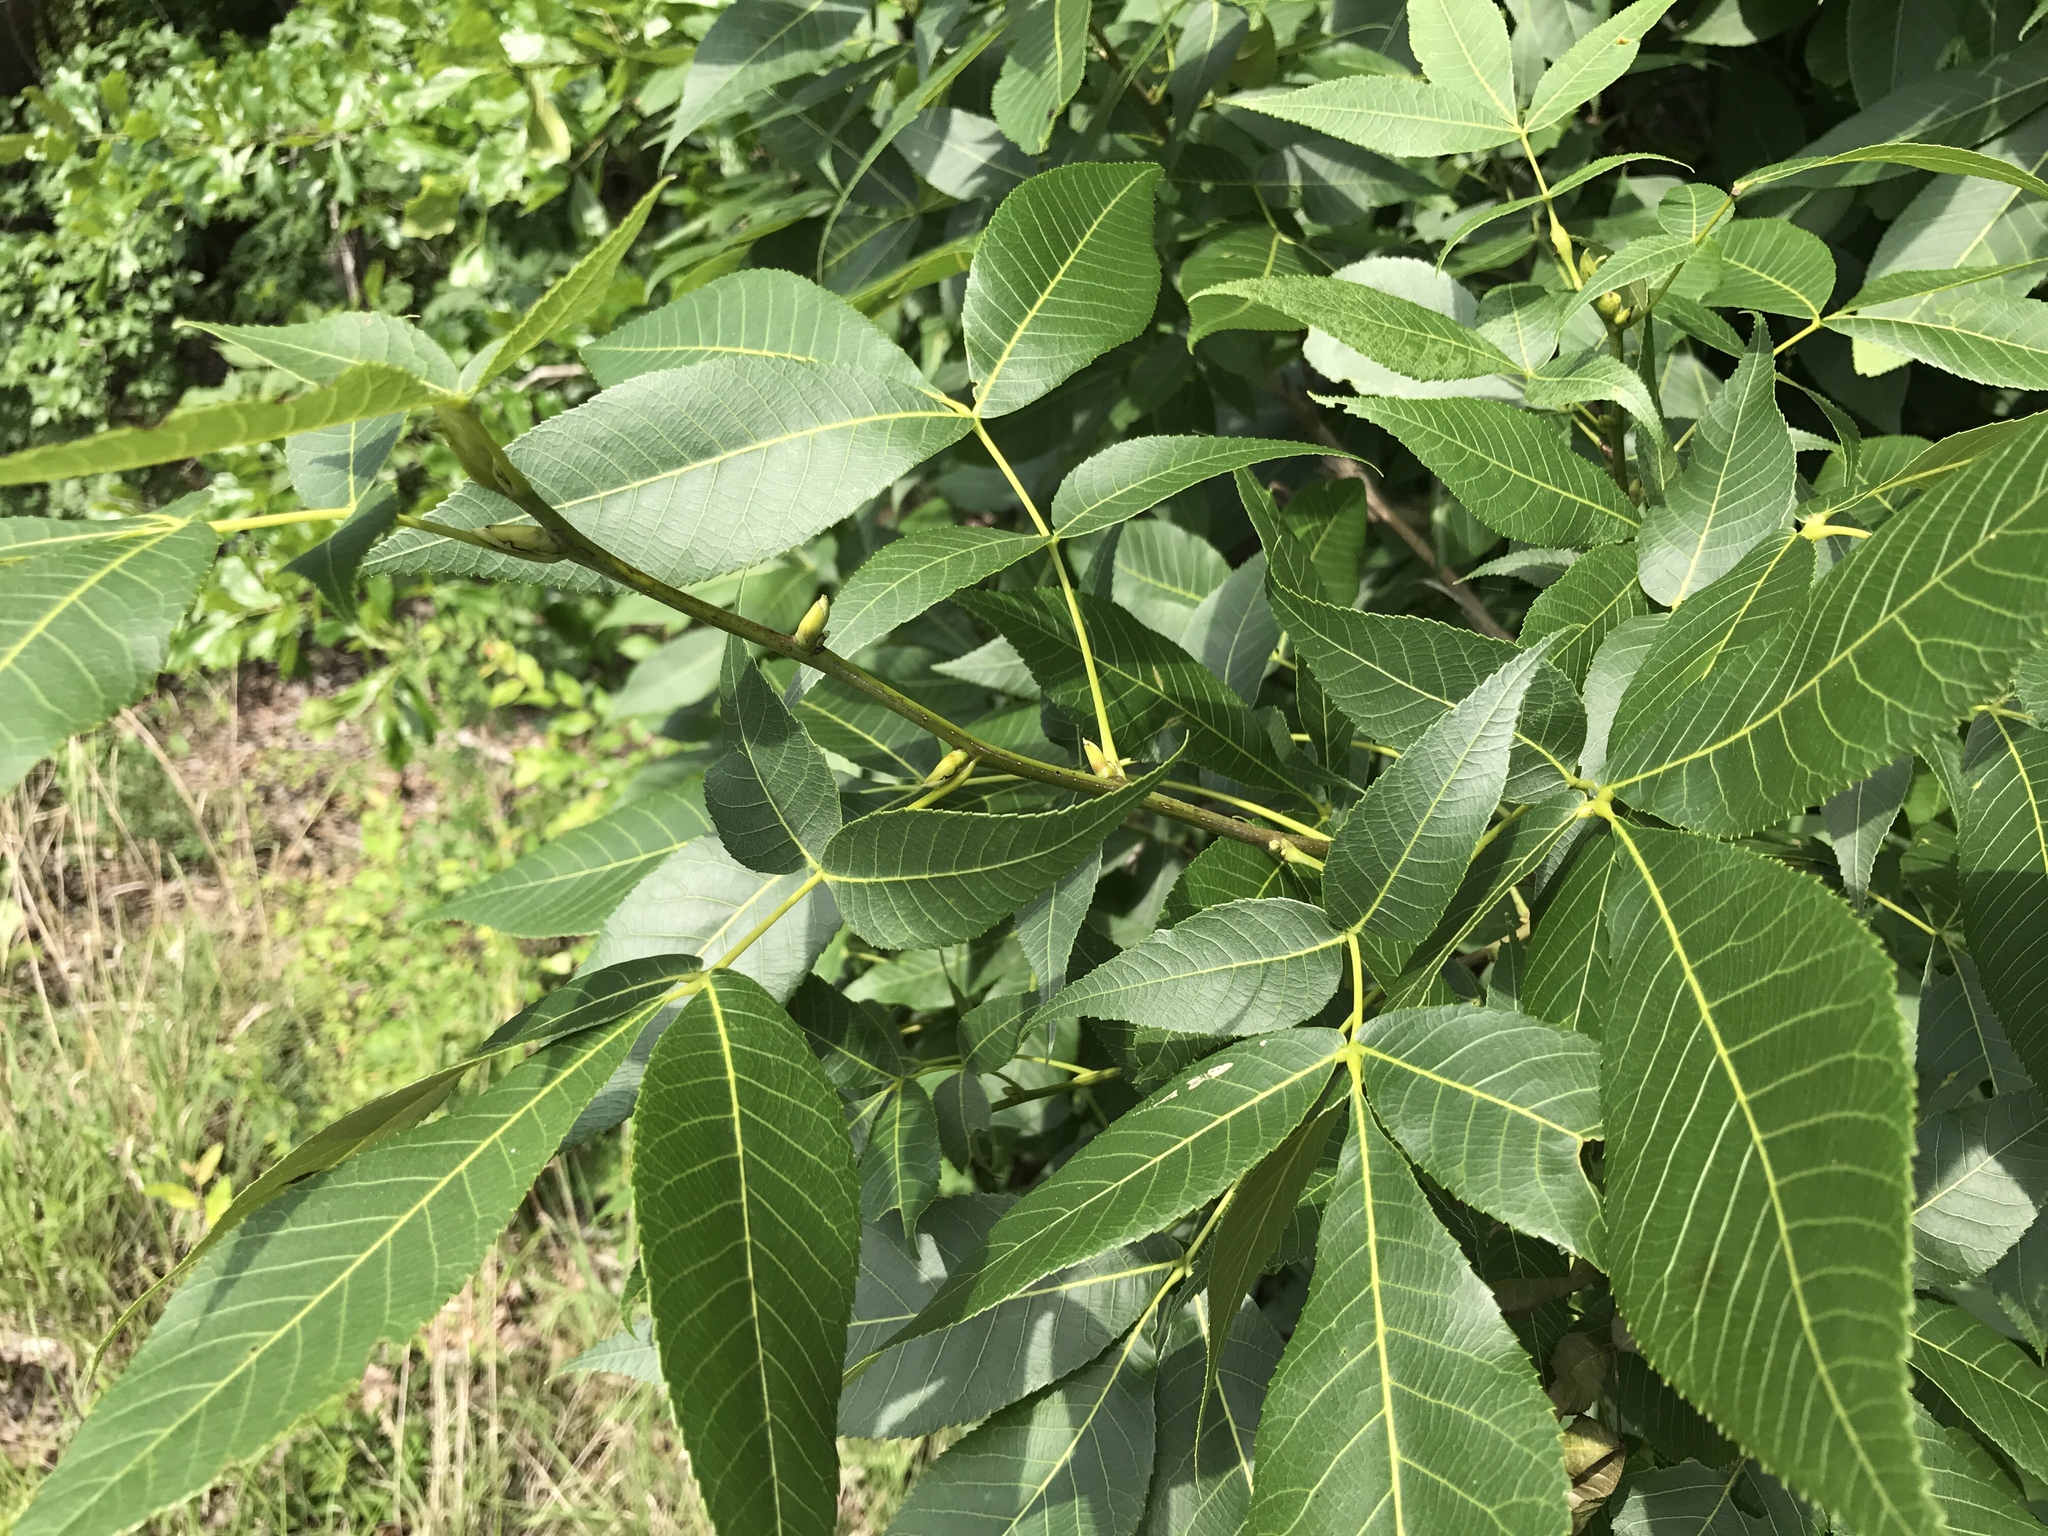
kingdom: Plantae
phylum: Tracheophyta
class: Magnoliopsida
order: Fagales
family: Juglandaceae
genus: Carya
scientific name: Carya glabra
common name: Pignut hickory
